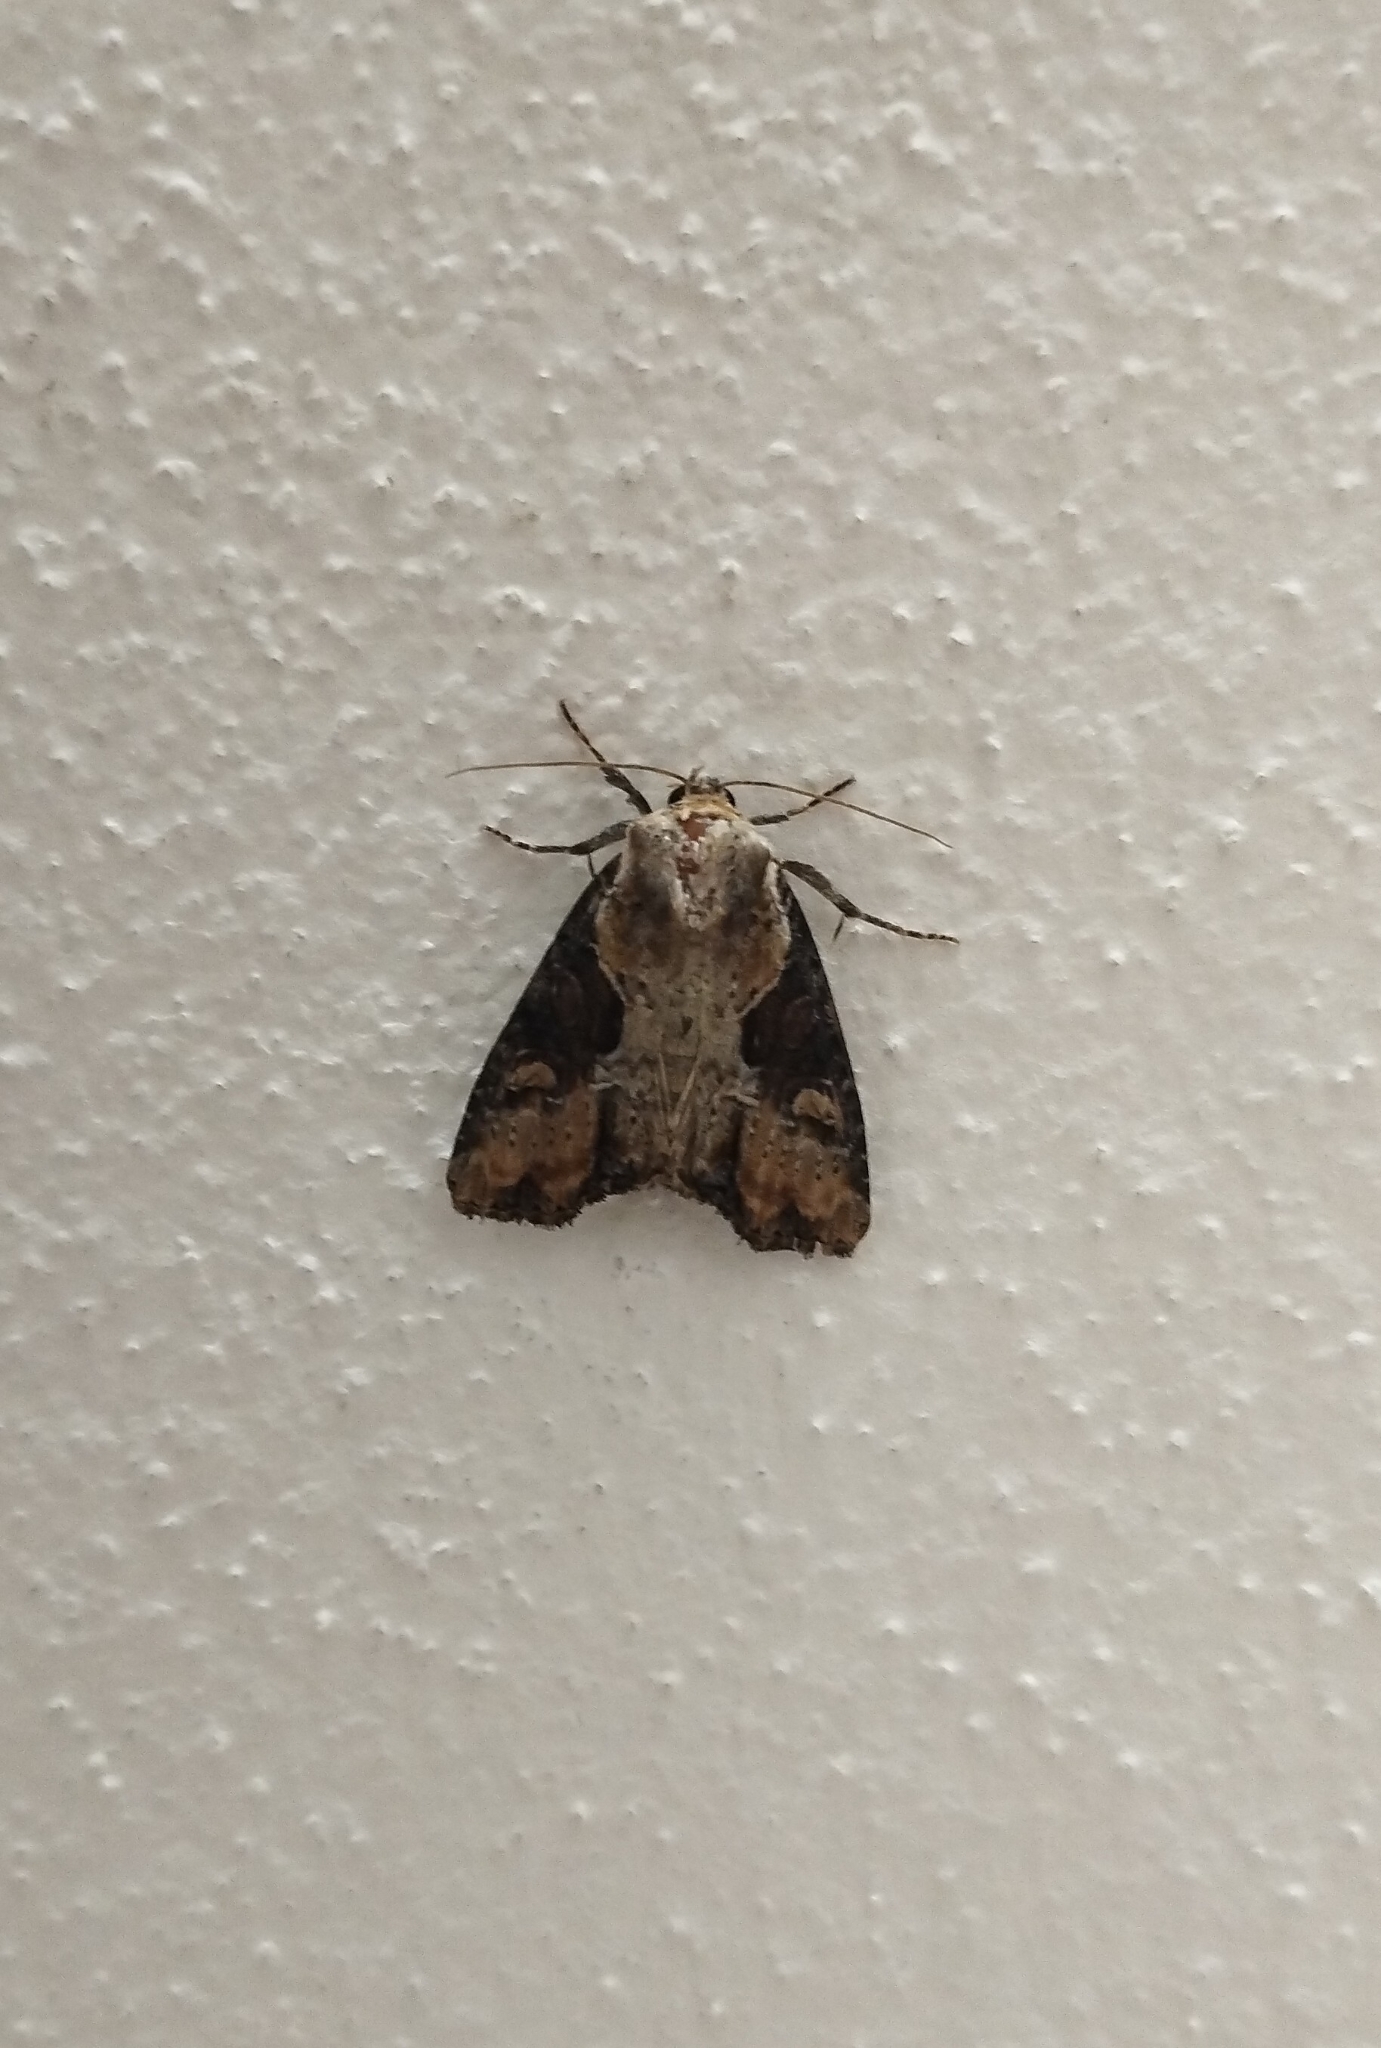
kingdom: Animalia
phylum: Arthropoda
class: Insecta
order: Lepidoptera
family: Noctuidae
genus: Lateroligia
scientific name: Lateroligia ophiogramma
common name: Double lobed
